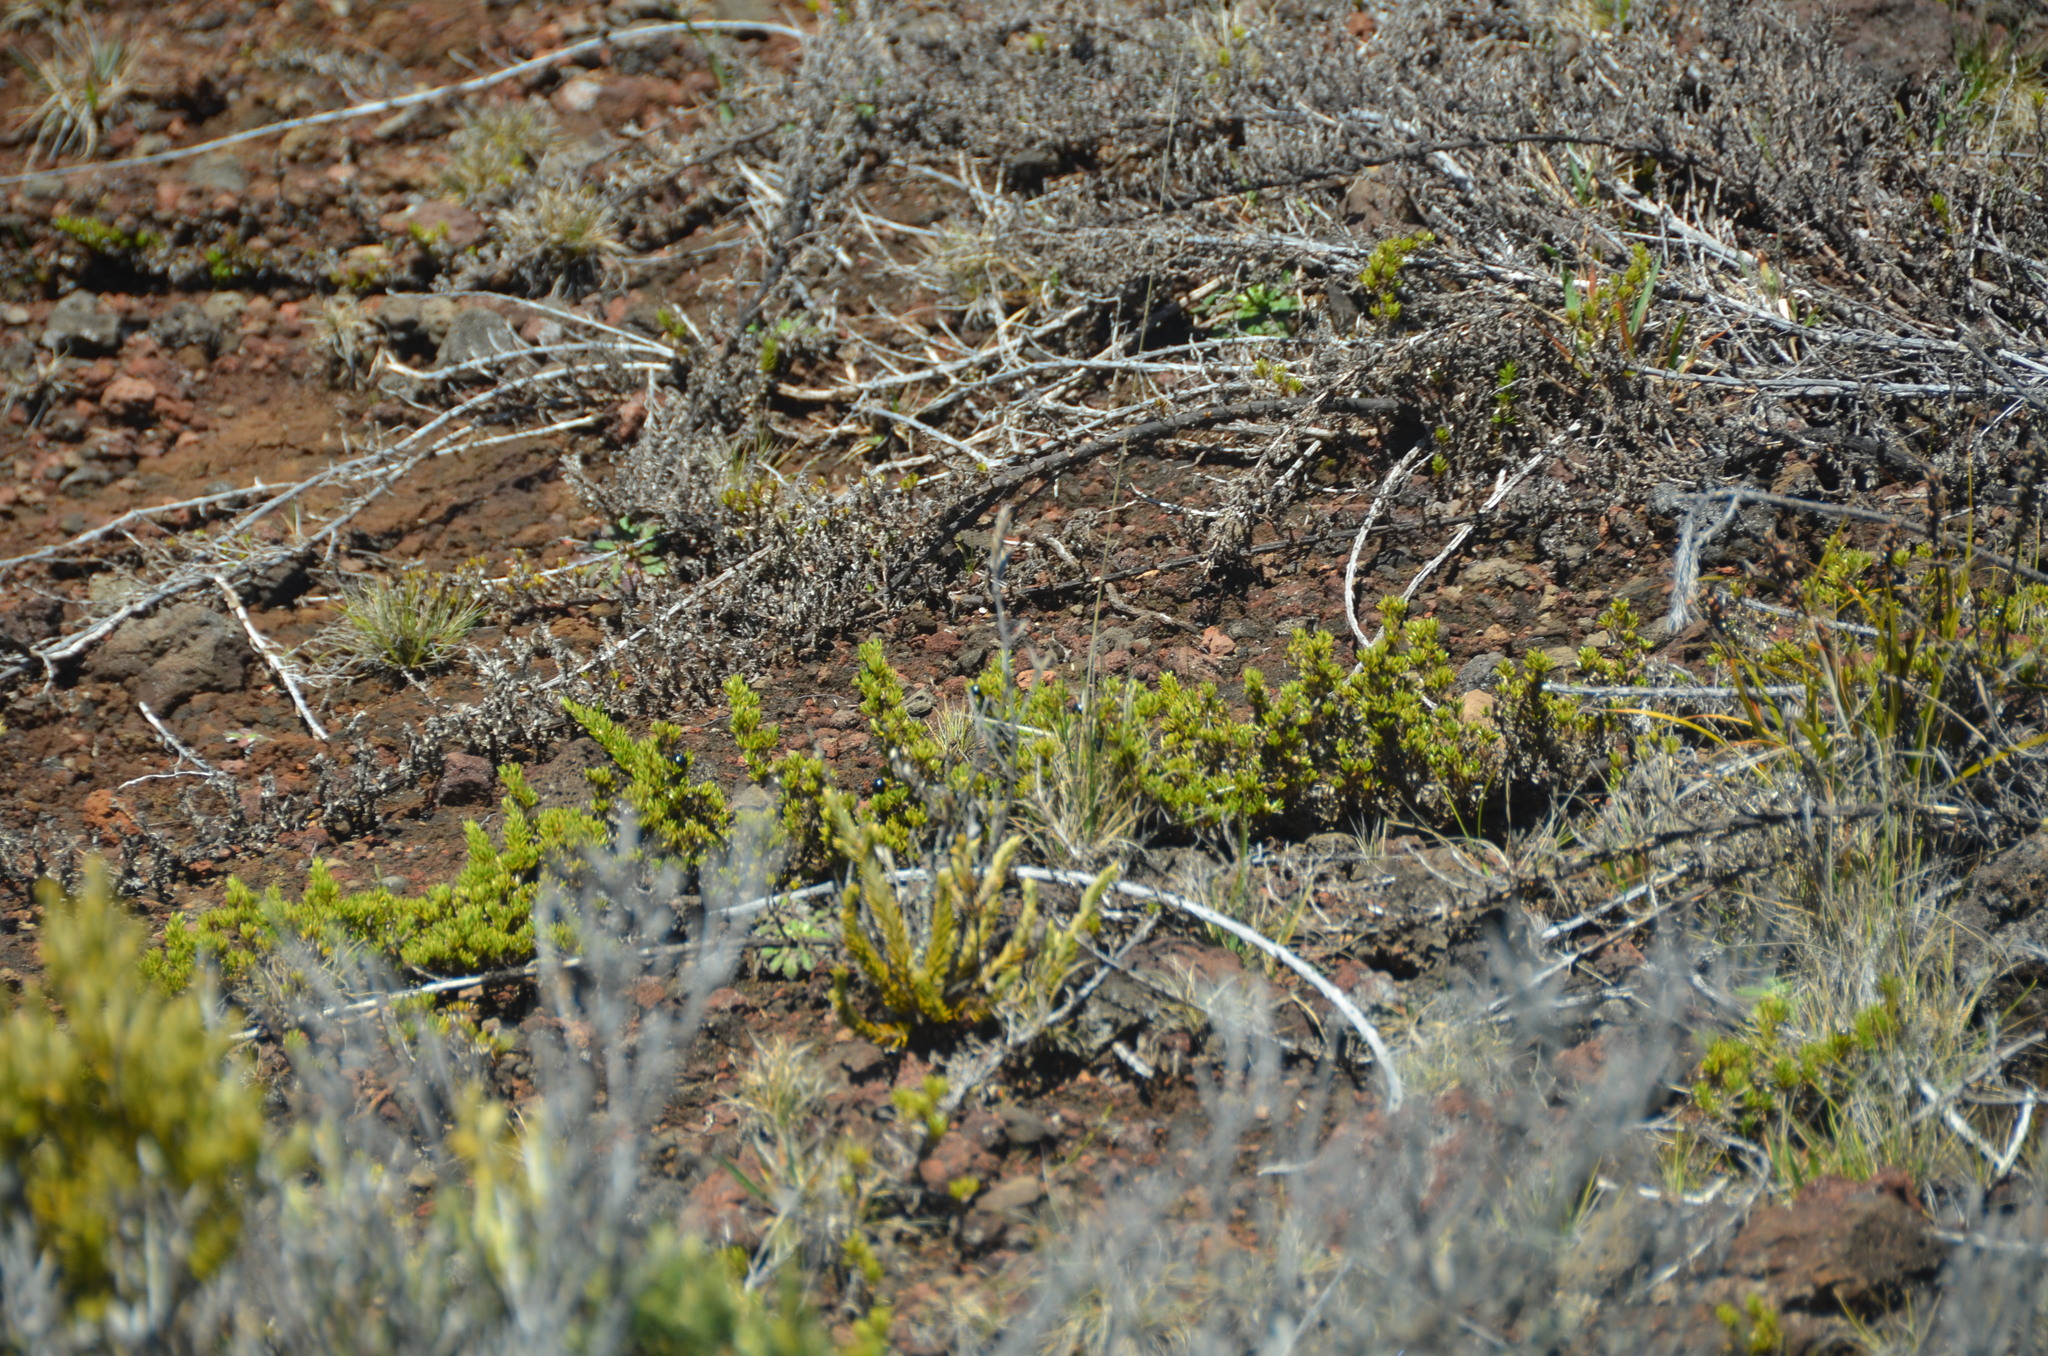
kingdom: Plantae
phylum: Tracheophyta
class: Magnoliopsida
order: Gentianales
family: Rubiaceae
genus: Coprosma
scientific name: Coprosma ernodeoides
